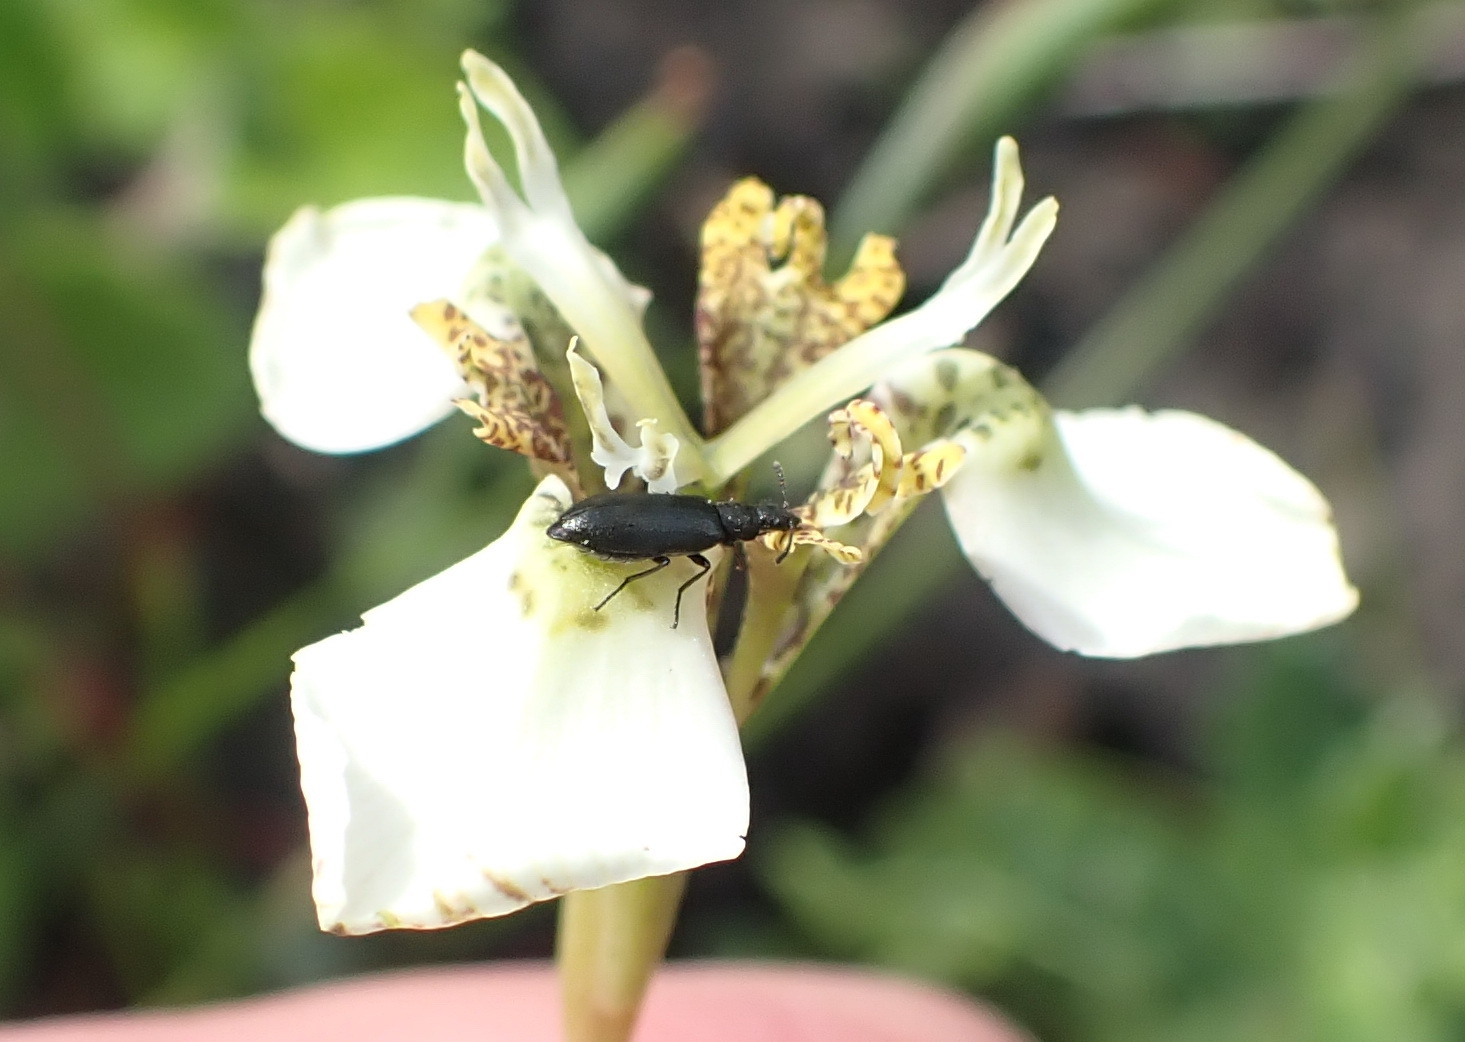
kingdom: Plantae
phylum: Tracheophyta
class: Liliopsida
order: Asparagales
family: Iridaceae
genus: Moraea
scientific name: Moraea tricuspidata
